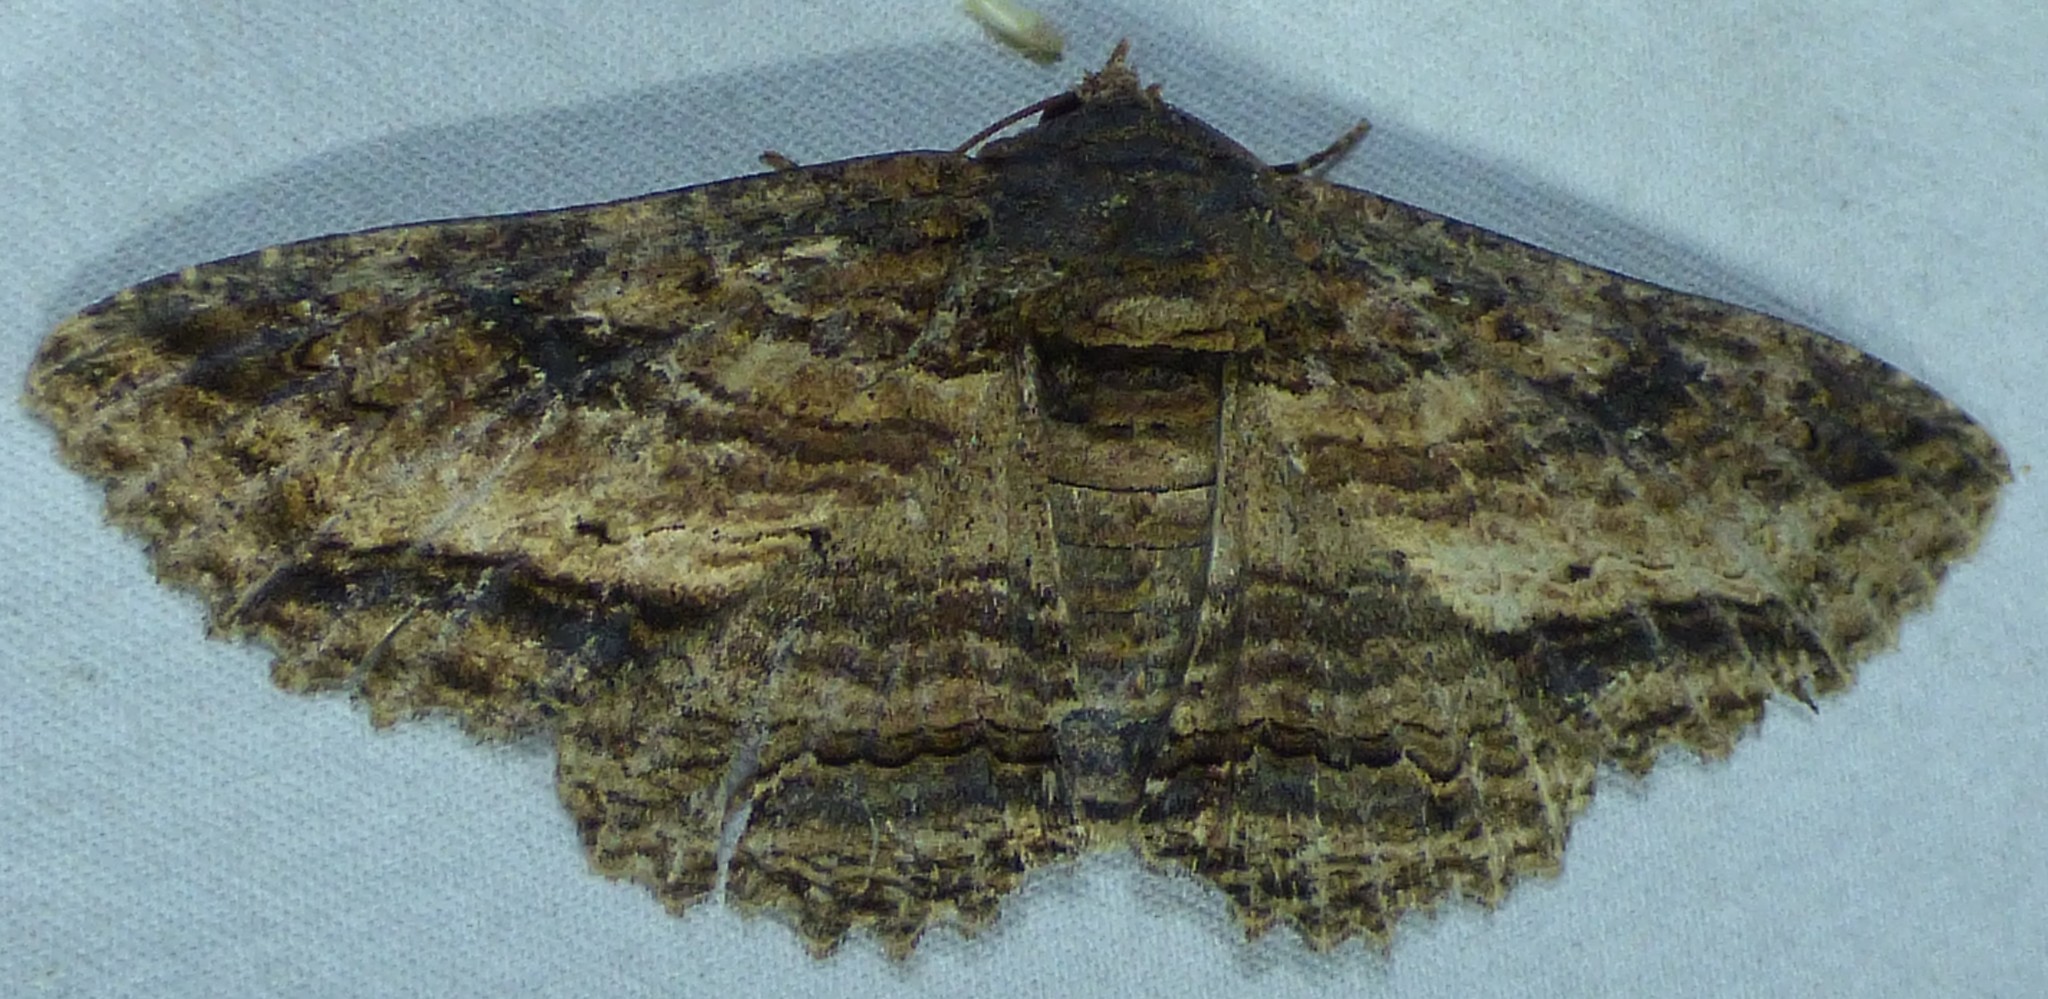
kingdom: Animalia
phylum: Arthropoda
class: Insecta
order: Lepidoptera
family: Erebidae
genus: Zale
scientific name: Zale lunata
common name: Lunate zale moth
